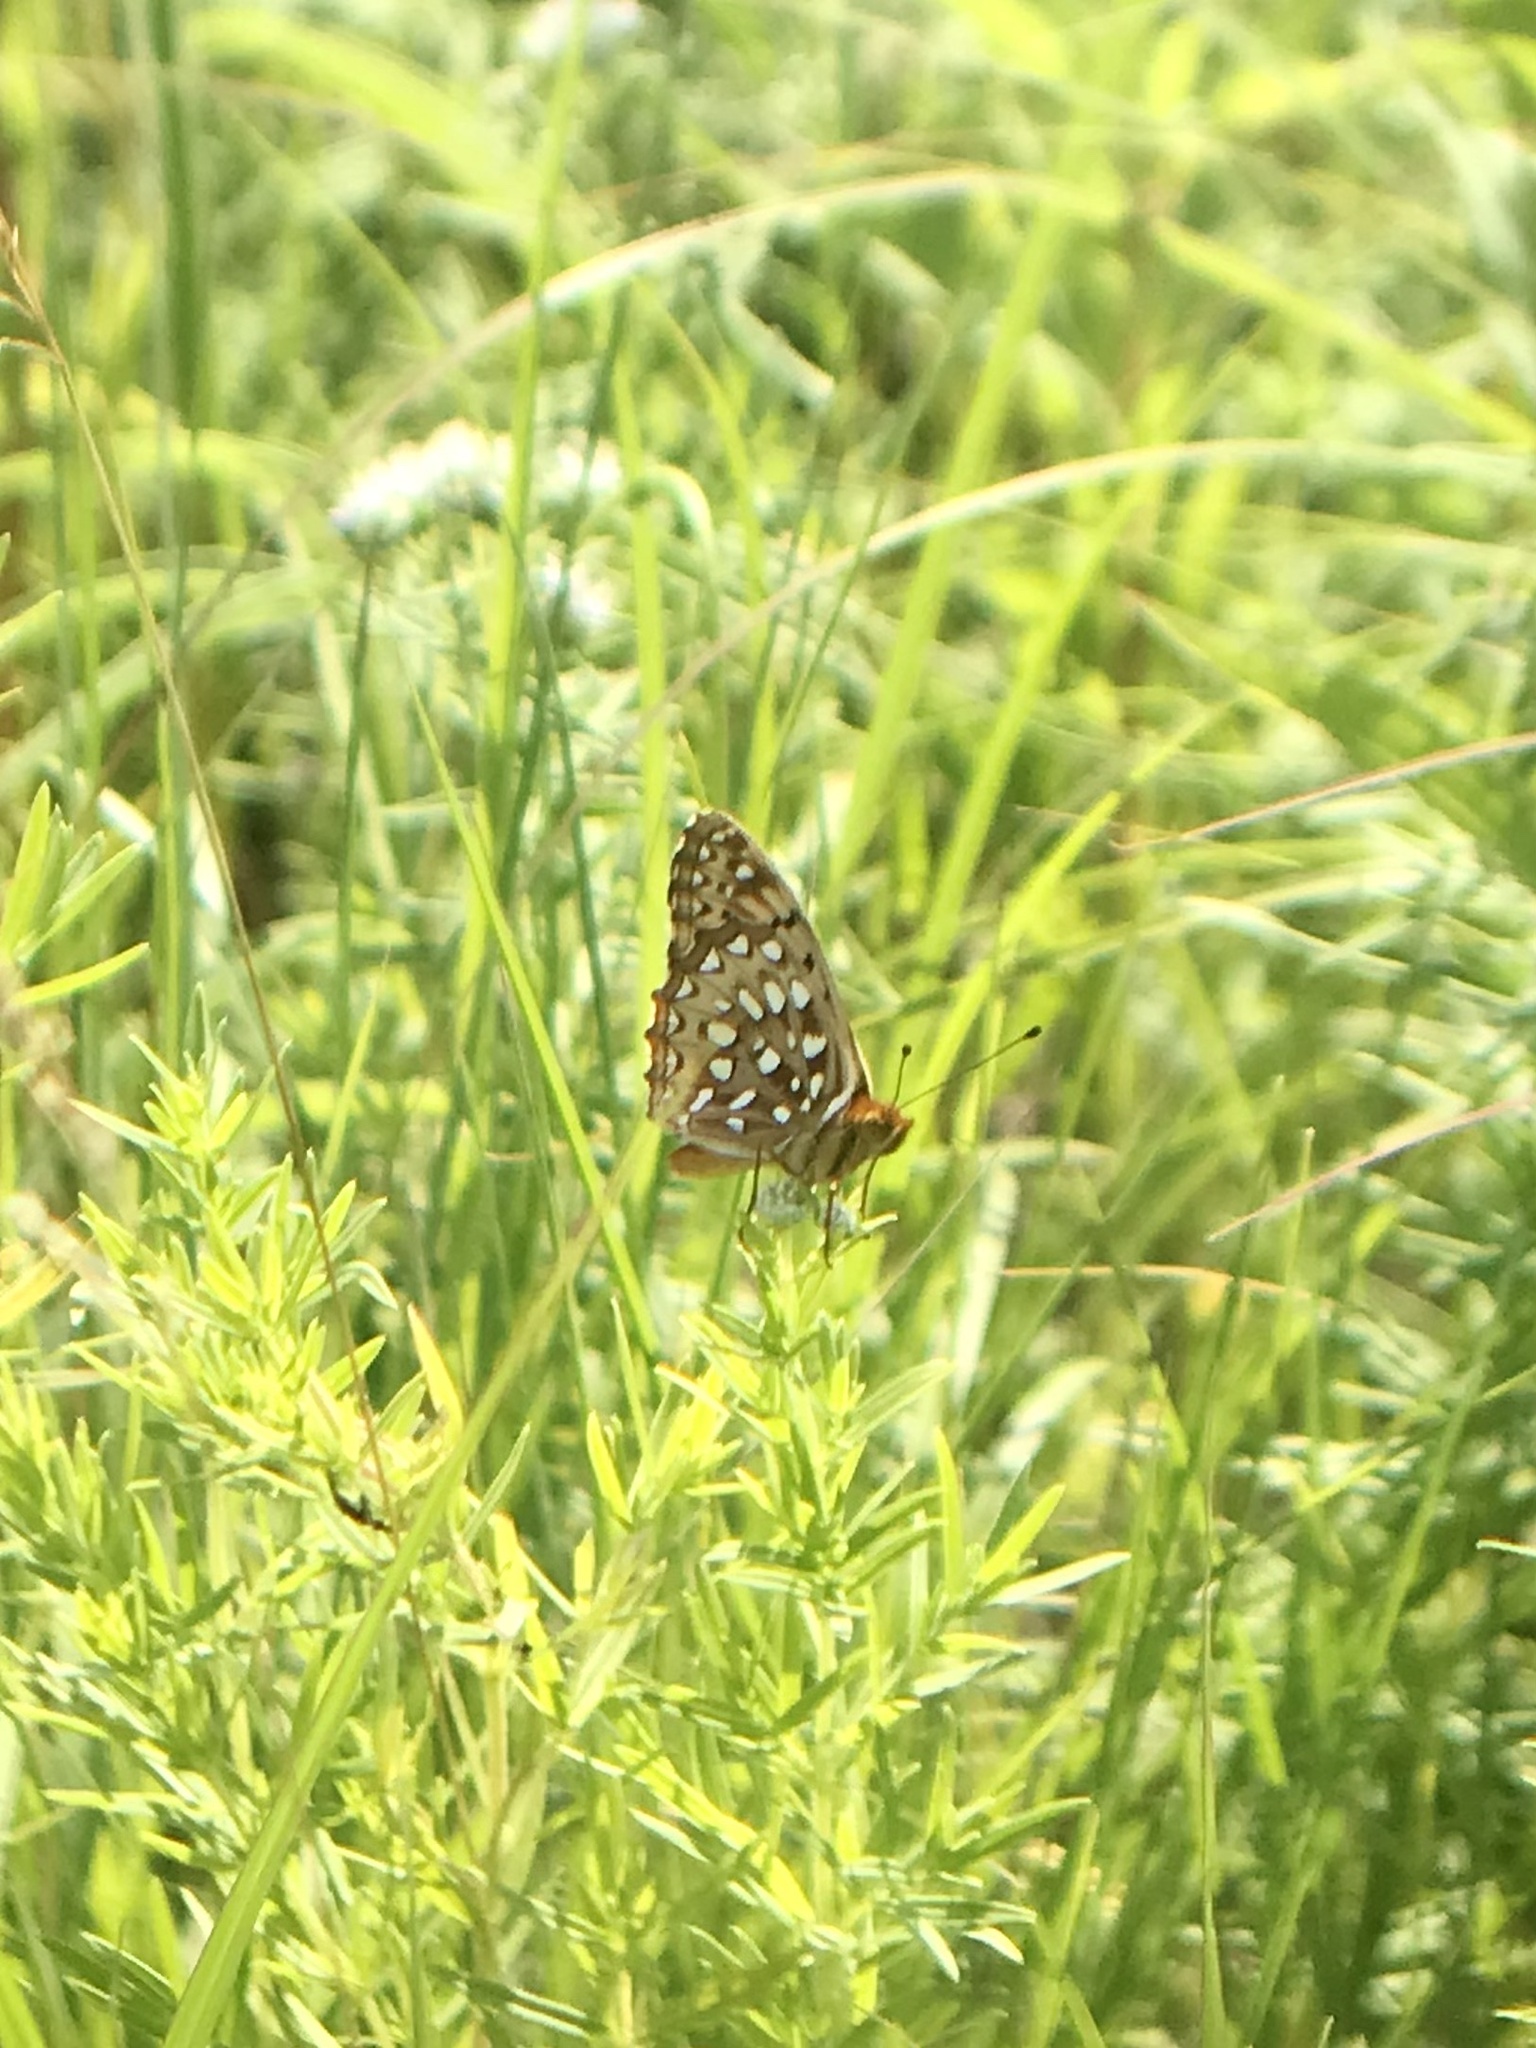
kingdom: Animalia
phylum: Arthropoda
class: Insecta
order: Lepidoptera
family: Nymphalidae
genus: Speyeria
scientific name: Speyeria cybele
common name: Great spangled fritillary
